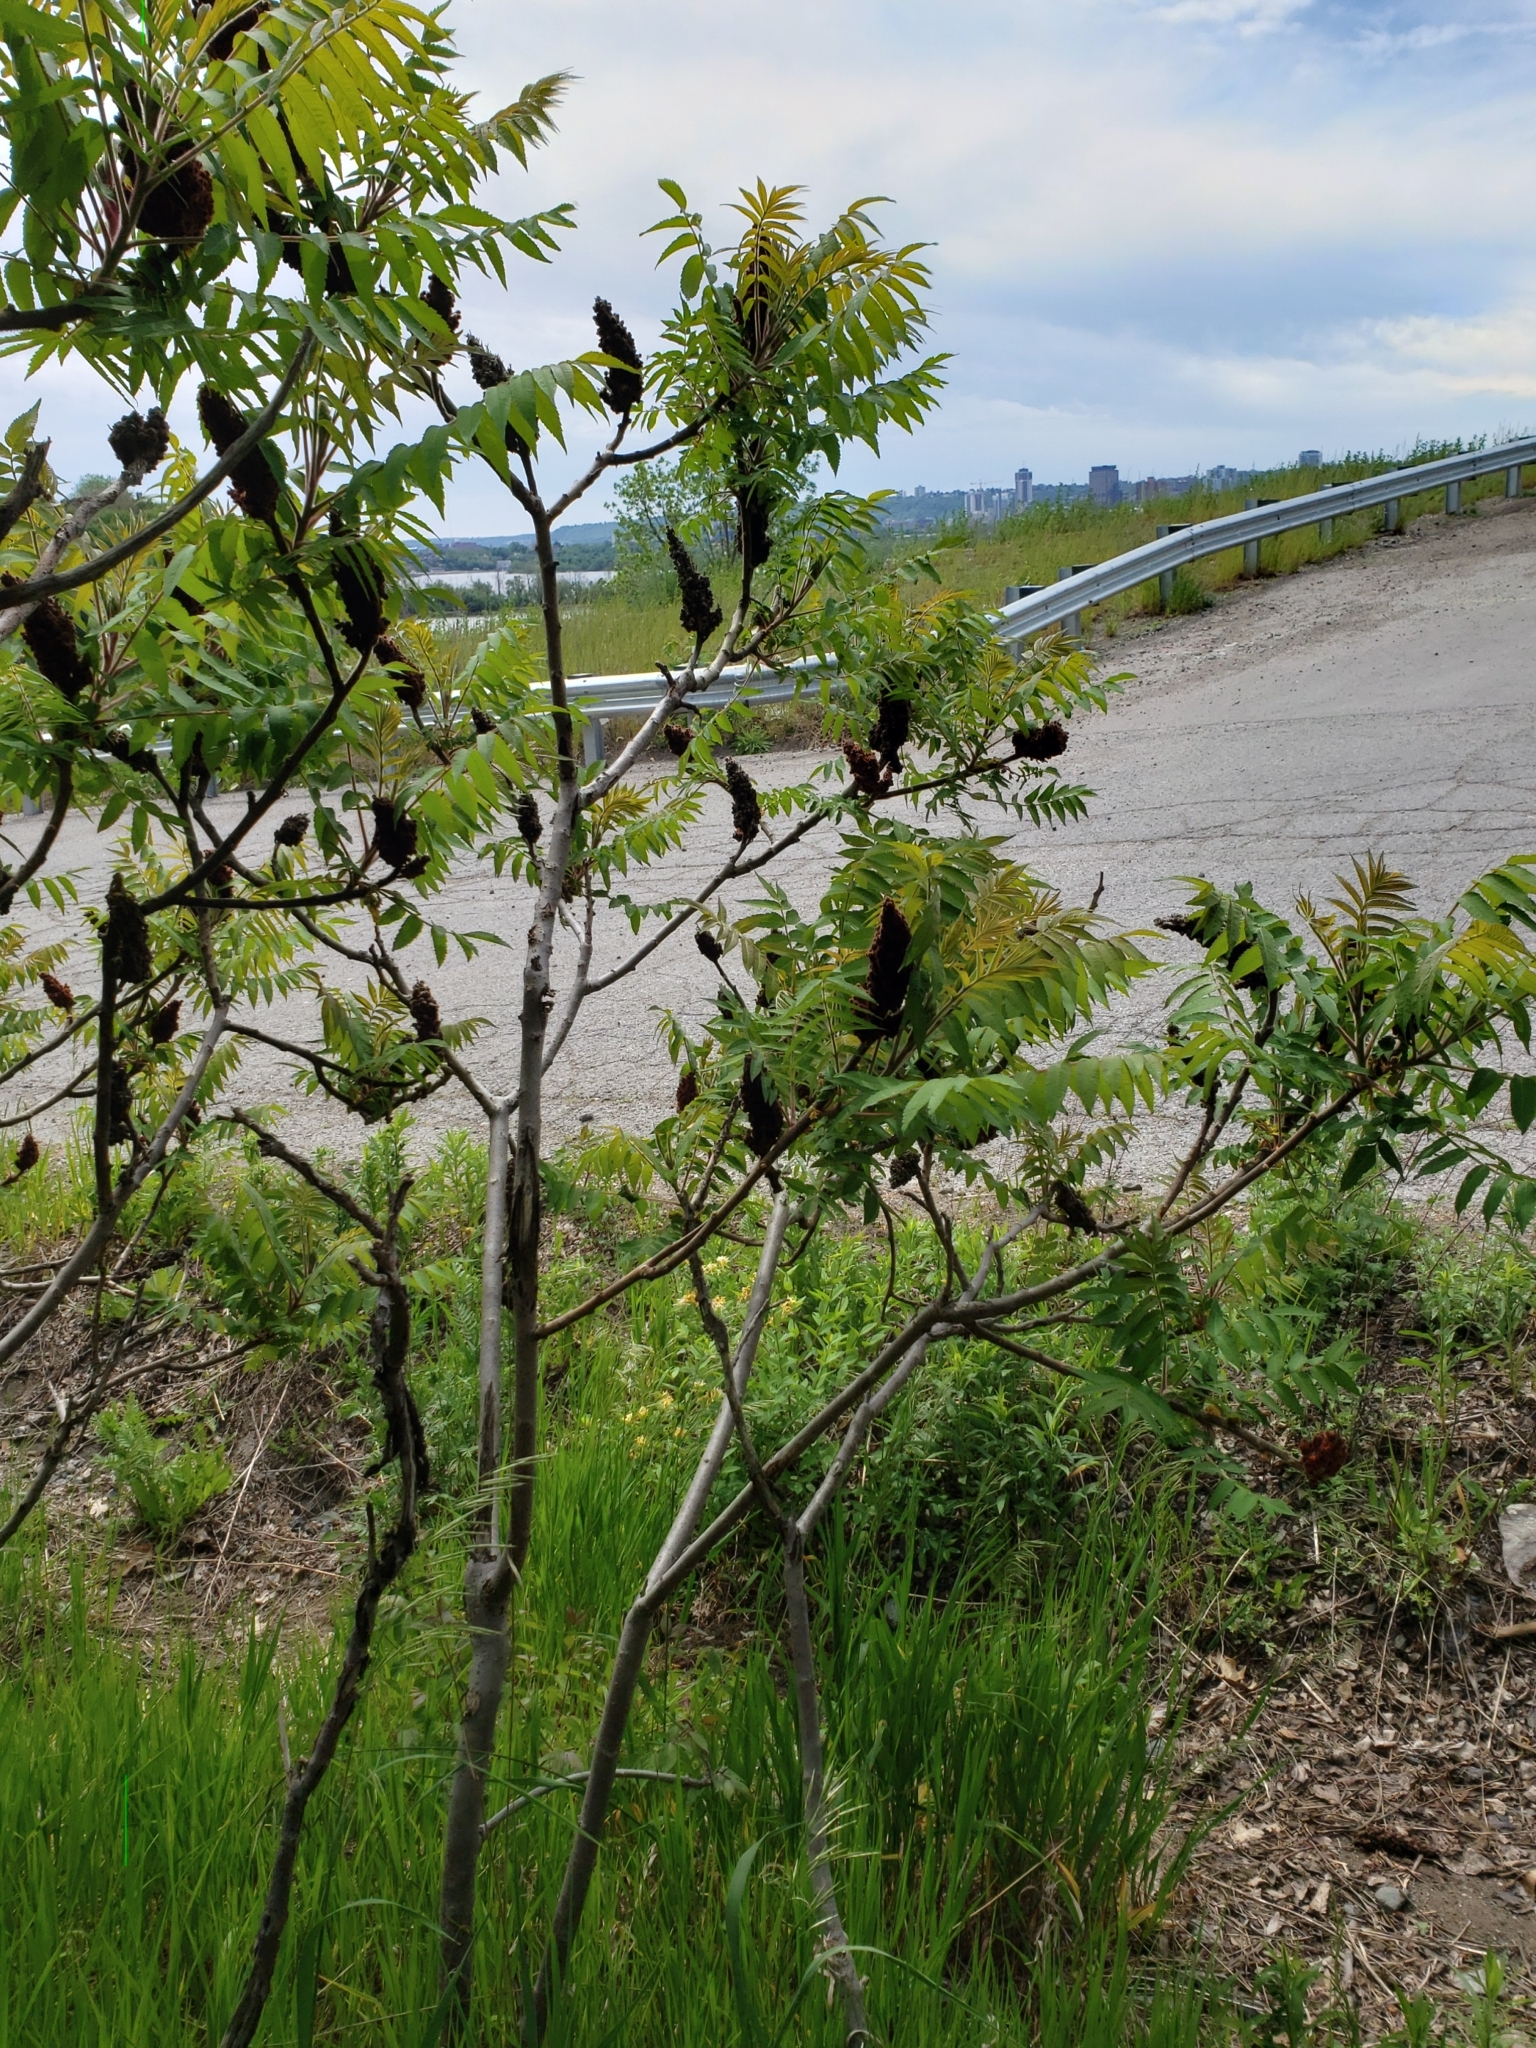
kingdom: Plantae
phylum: Tracheophyta
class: Magnoliopsida
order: Sapindales
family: Anacardiaceae
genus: Rhus
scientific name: Rhus typhina
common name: Staghorn sumac
